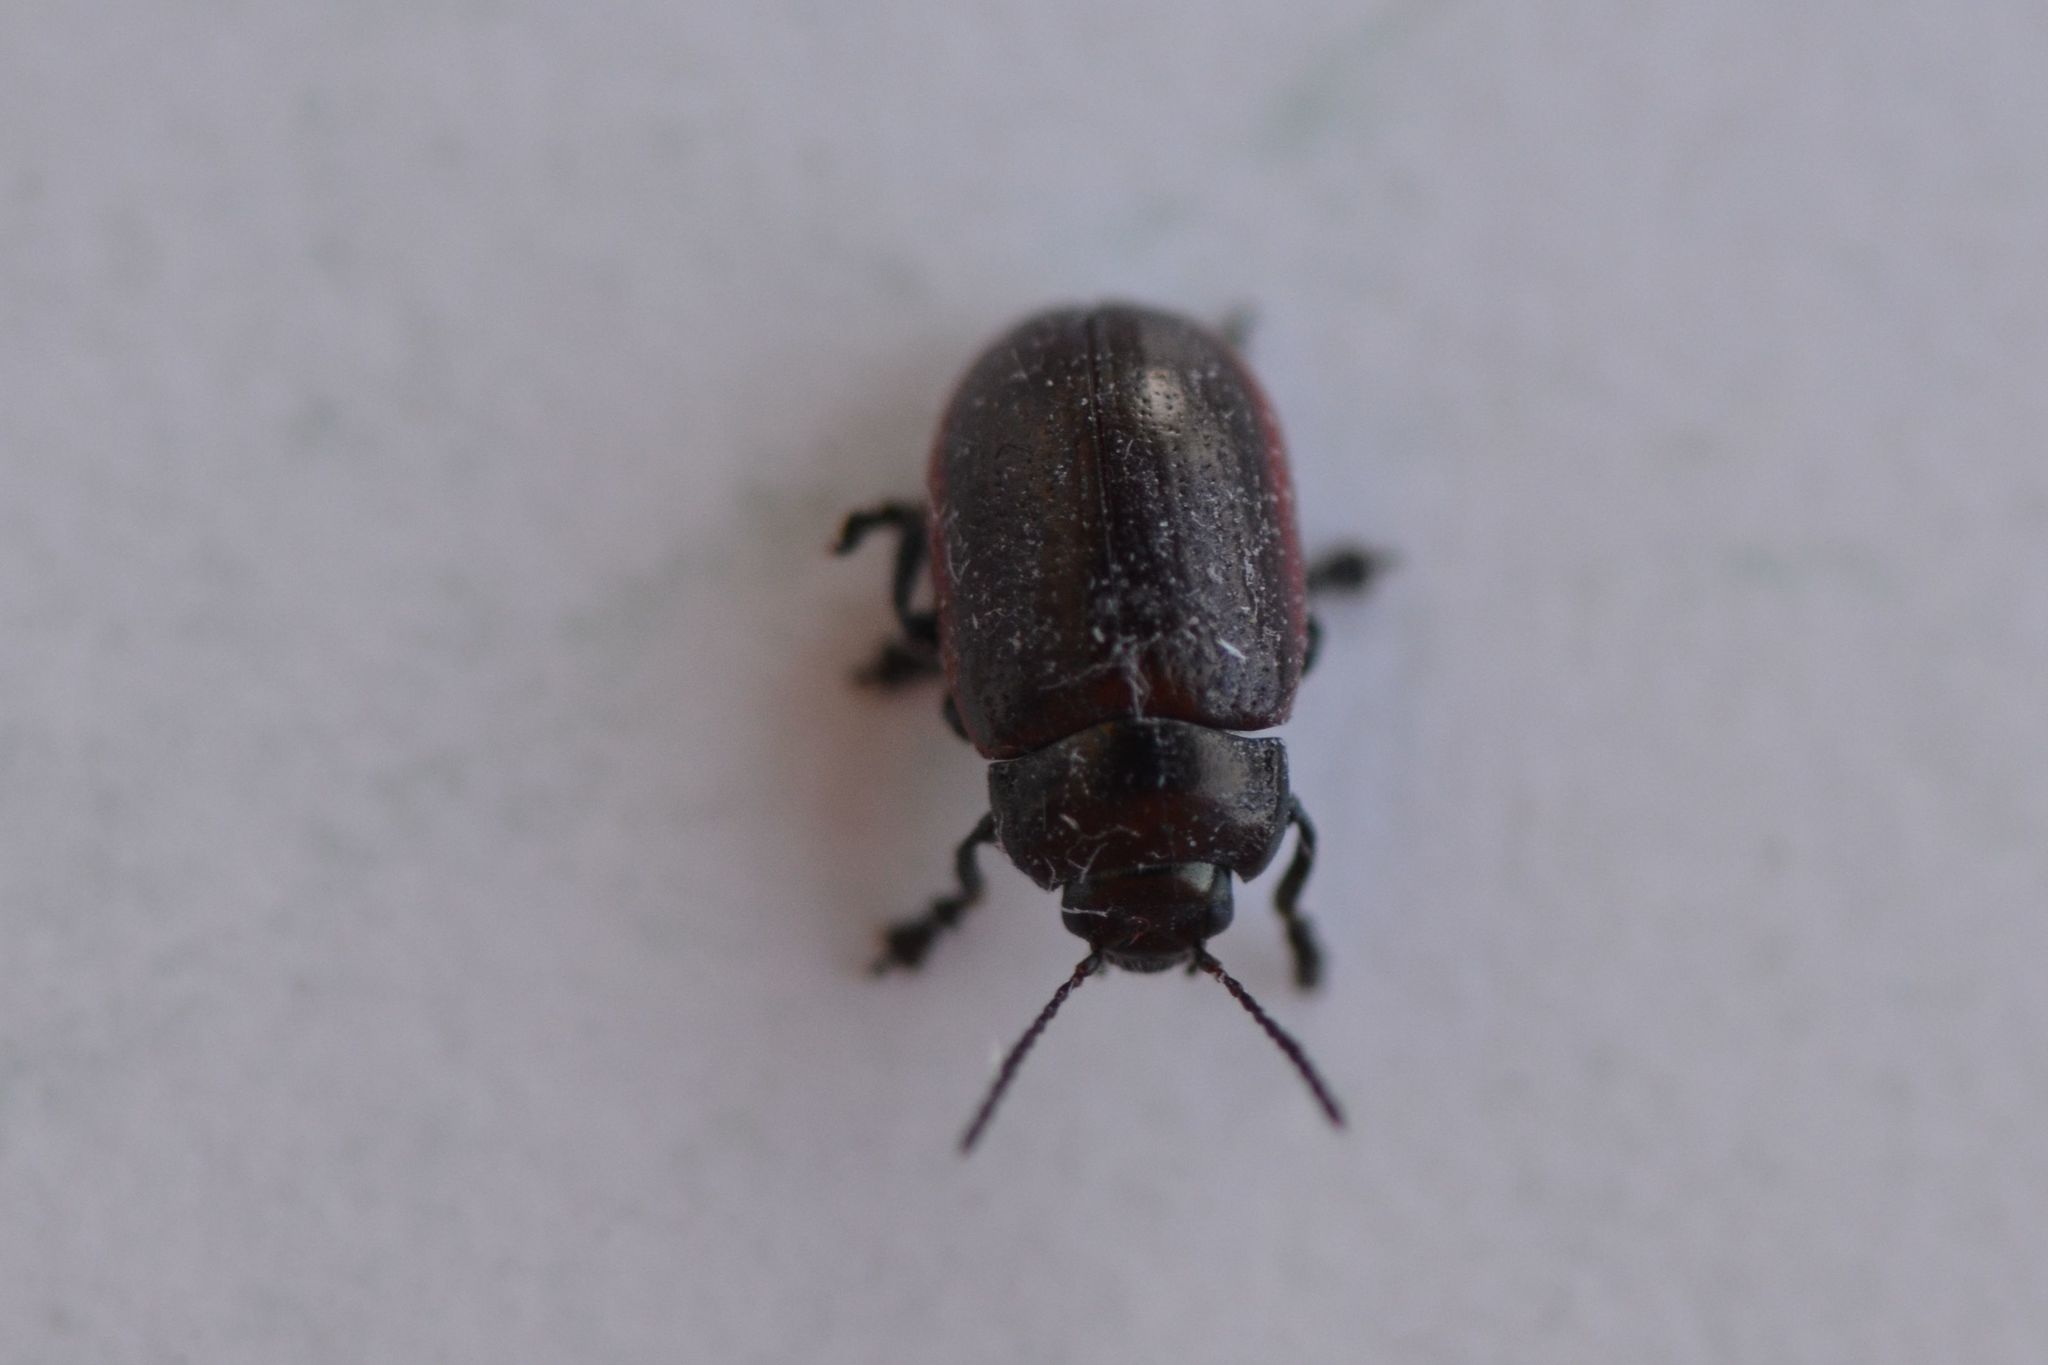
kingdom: Animalia
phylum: Arthropoda
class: Insecta
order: Coleoptera
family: Chrysomelidae
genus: Chrysolina
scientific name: Chrysolina marginata
